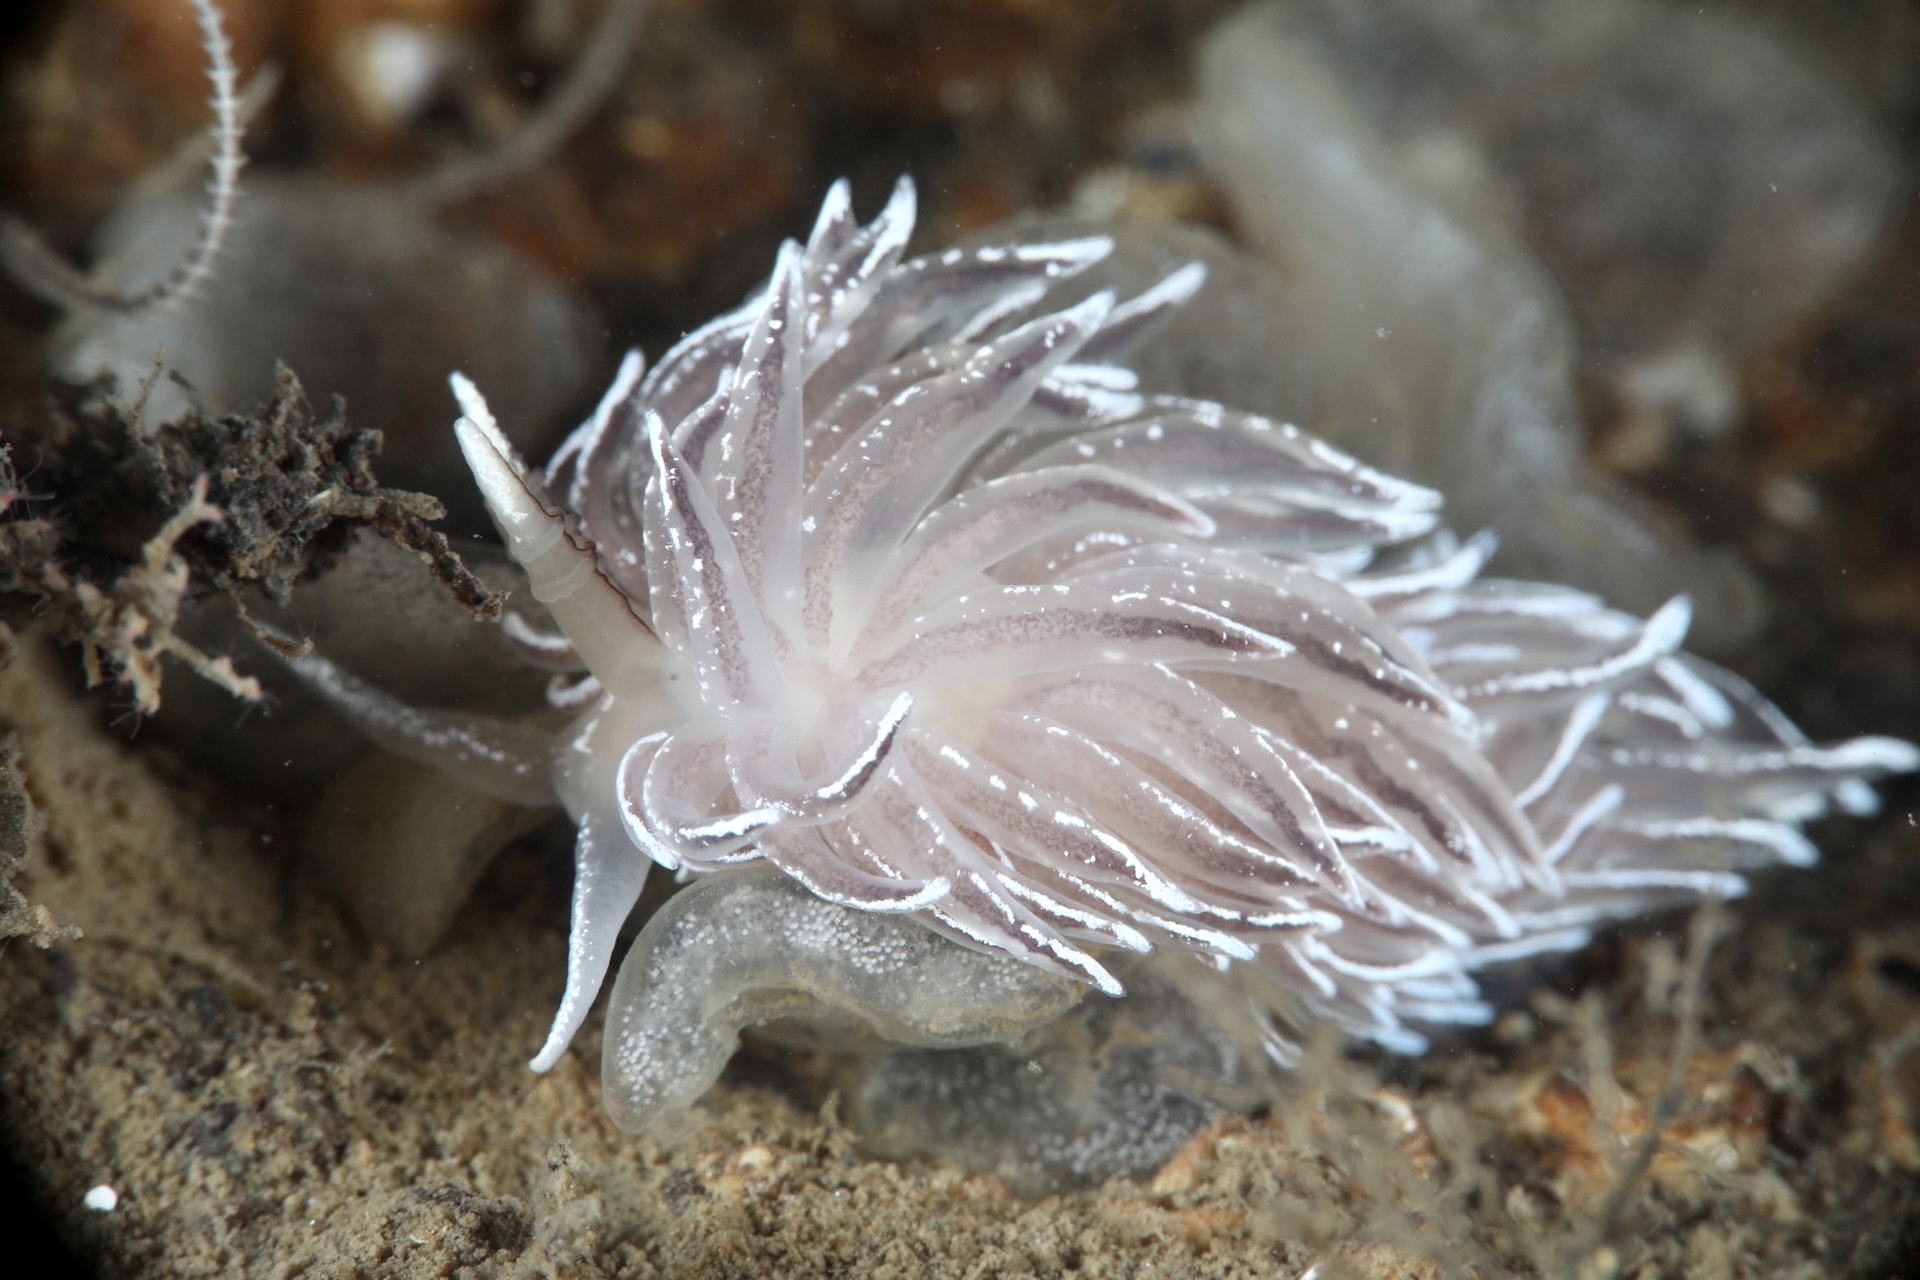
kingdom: Animalia
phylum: Mollusca
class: Gastropoda
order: Nudibranchia
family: Facelinidae
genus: Favorinus
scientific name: Favorinus blianus
